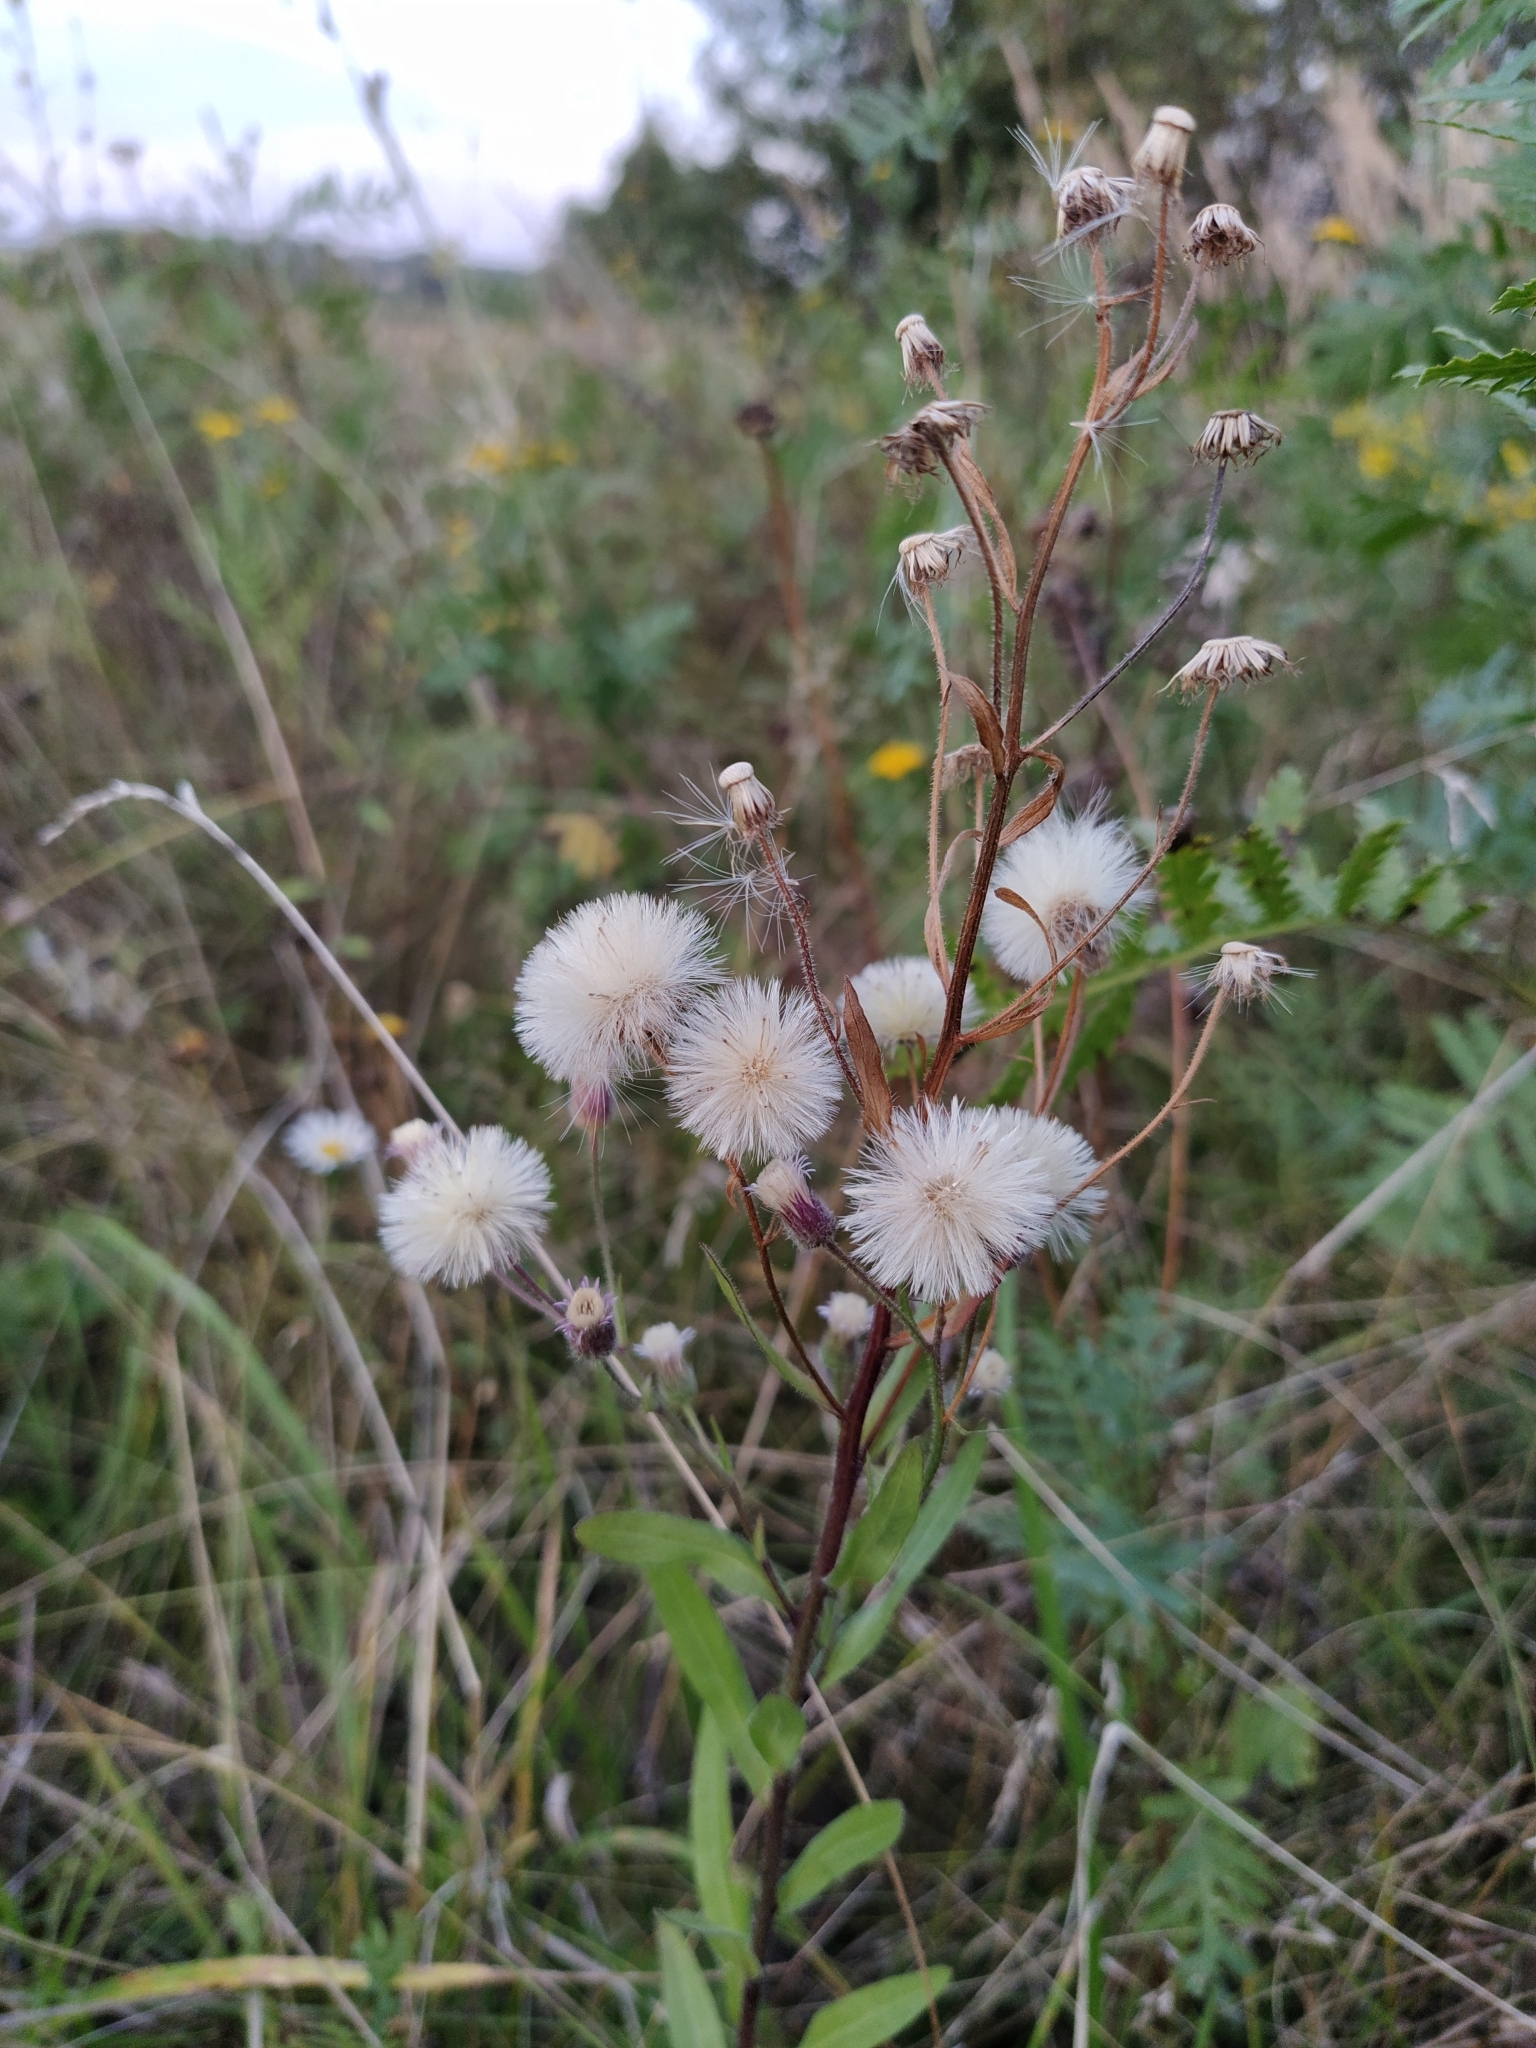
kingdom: Plantae
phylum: Tracheophyta
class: Magnoliopsida
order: Asterales
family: Asteraceae
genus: Erigeron
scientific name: Erigeron acris
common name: Blue fleabane
